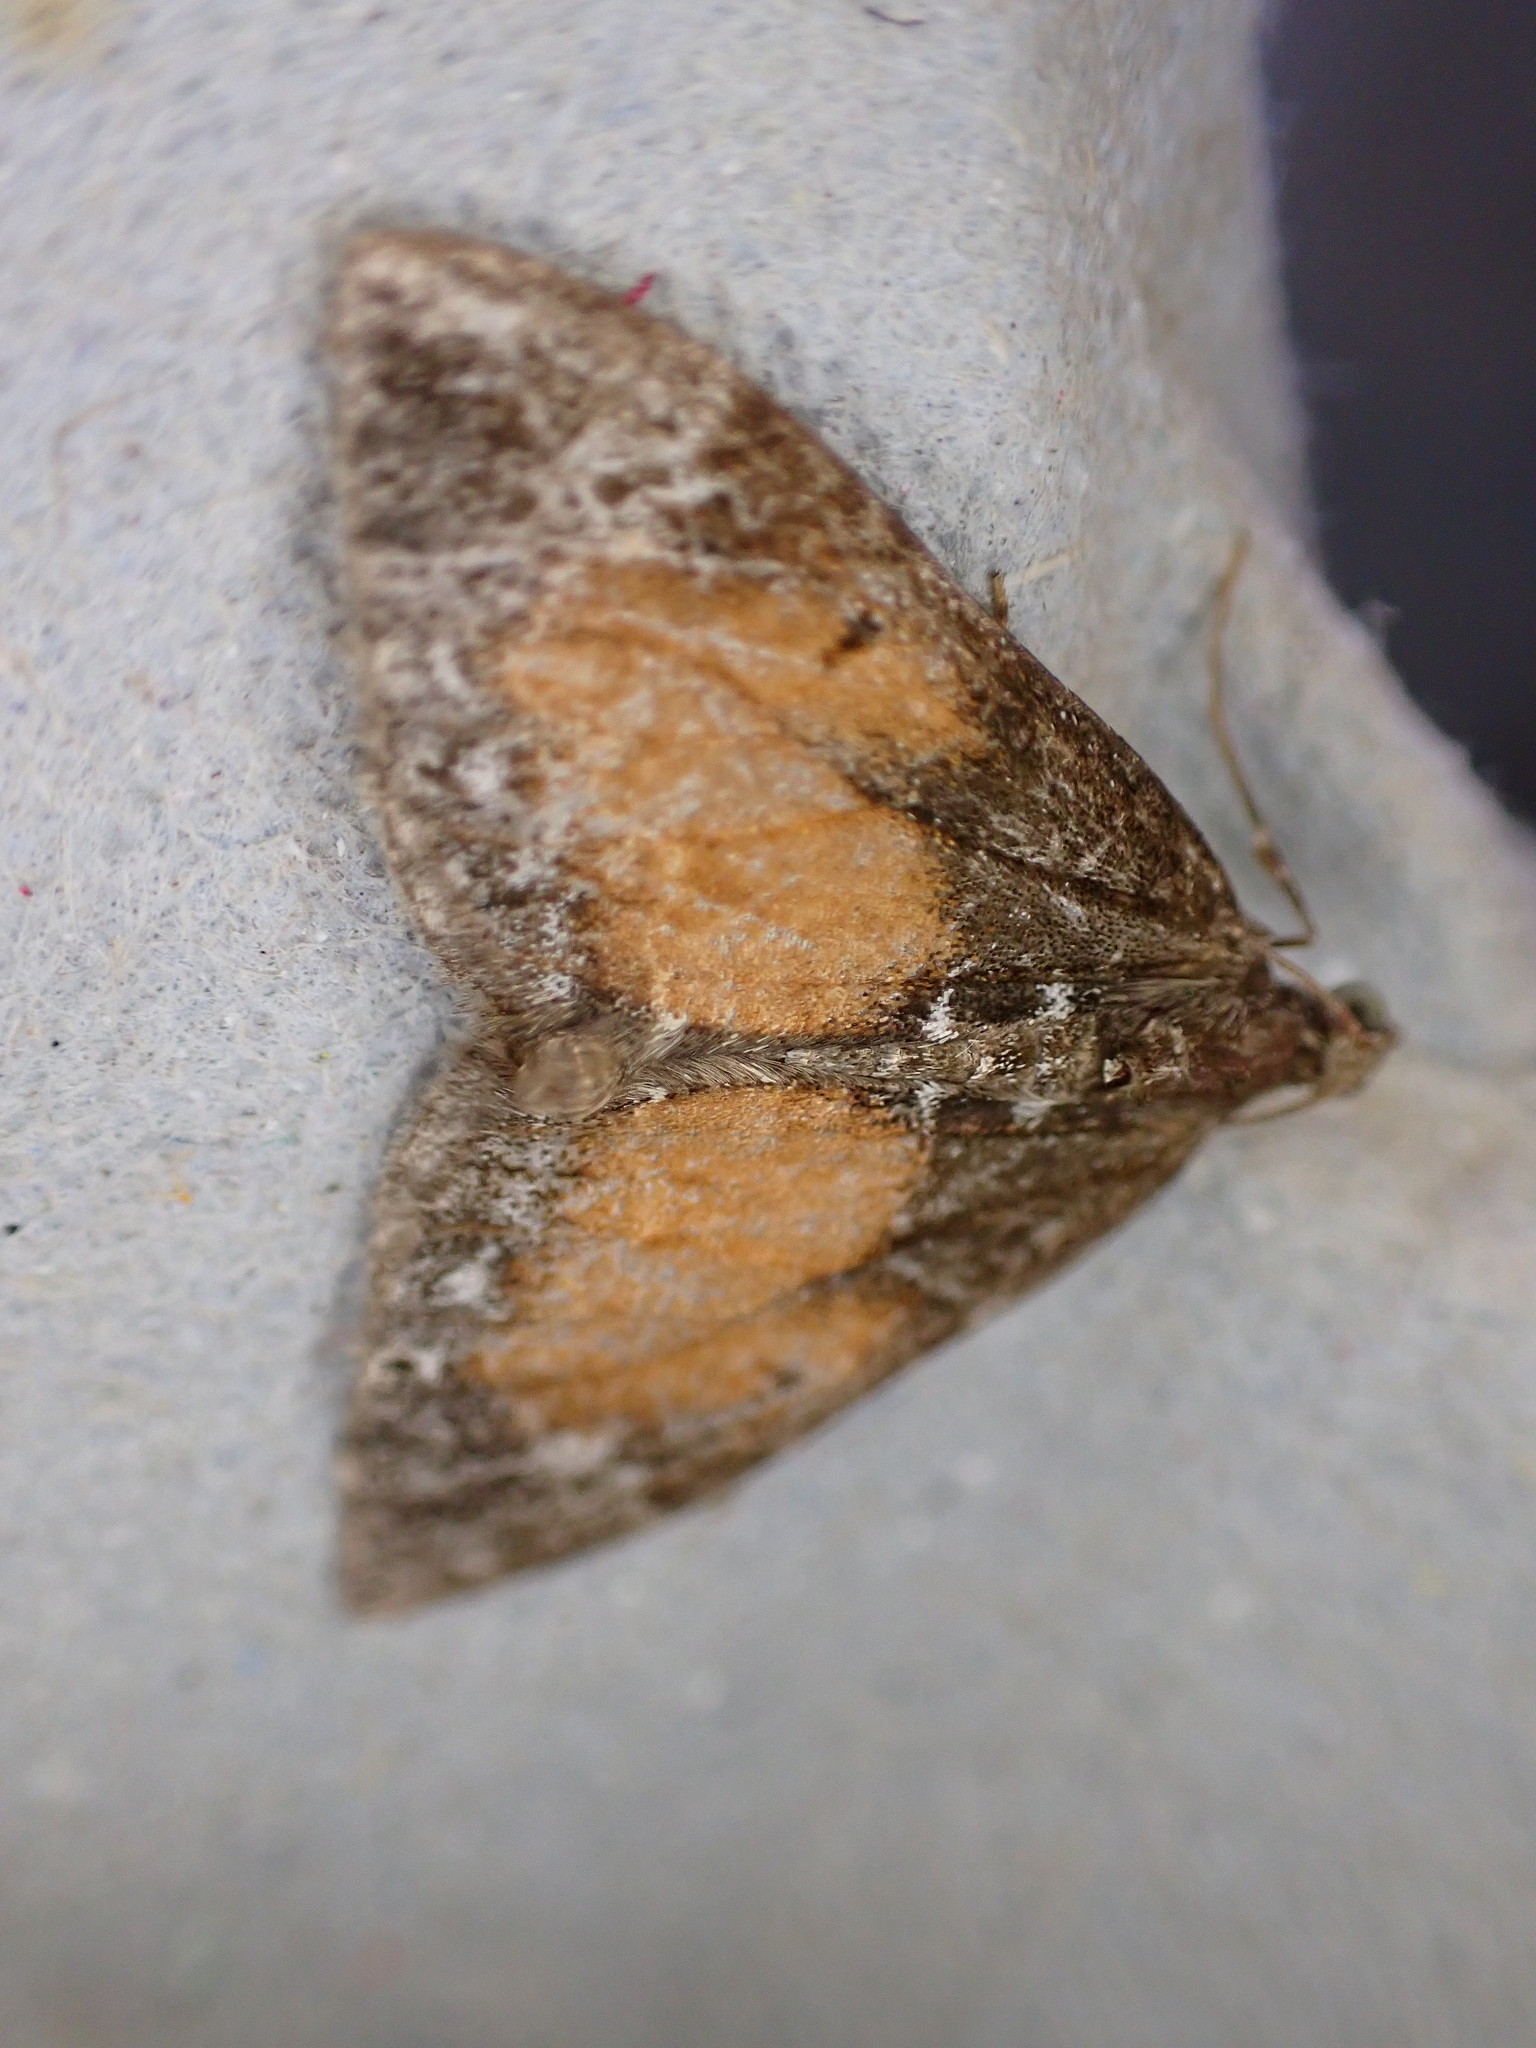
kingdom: Animalia
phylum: Arthropoda
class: Insecta
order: Lepidoptera
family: Geometridae
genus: Dysstroma
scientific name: Dysstroma truncata
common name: Common marbled carpet
